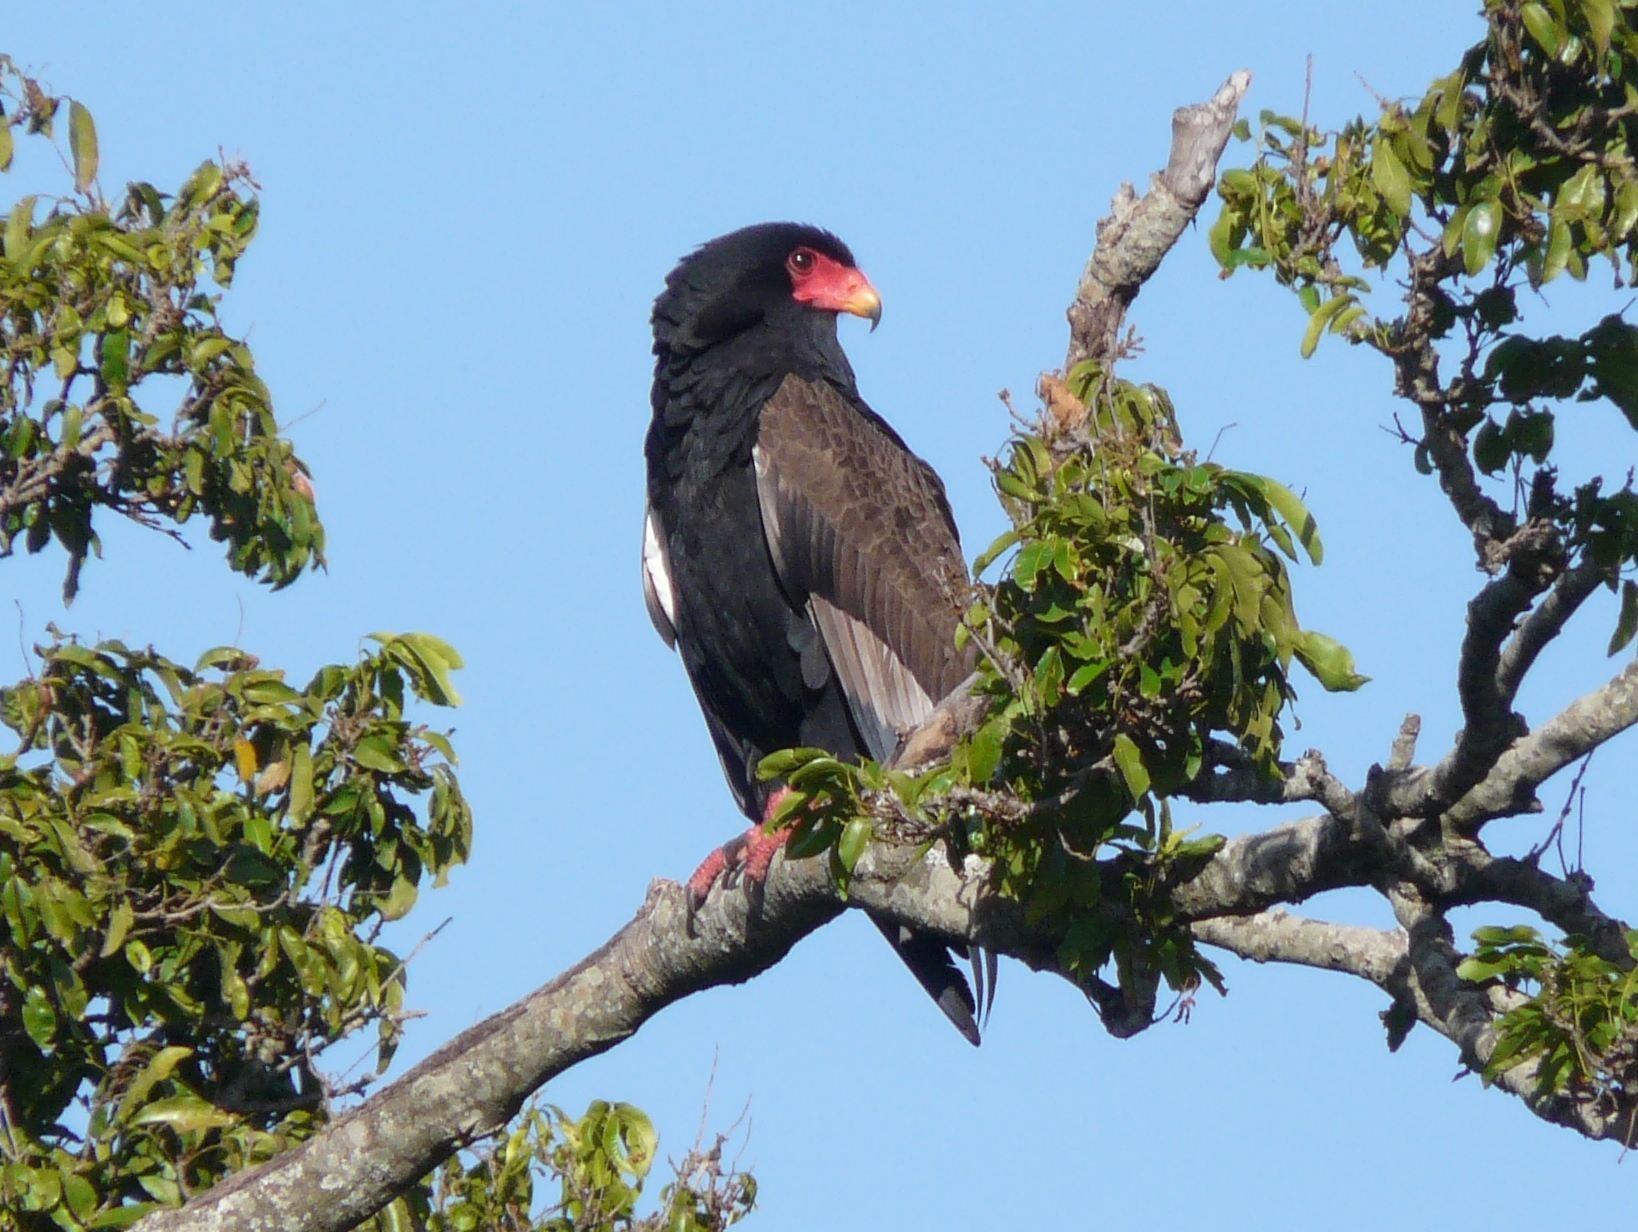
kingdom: Animalia
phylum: Chordata
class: Aves
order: Accipitriformes
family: Accipitridae
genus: Terathopius
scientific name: Terathopius ecaudatus
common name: Bateleur
